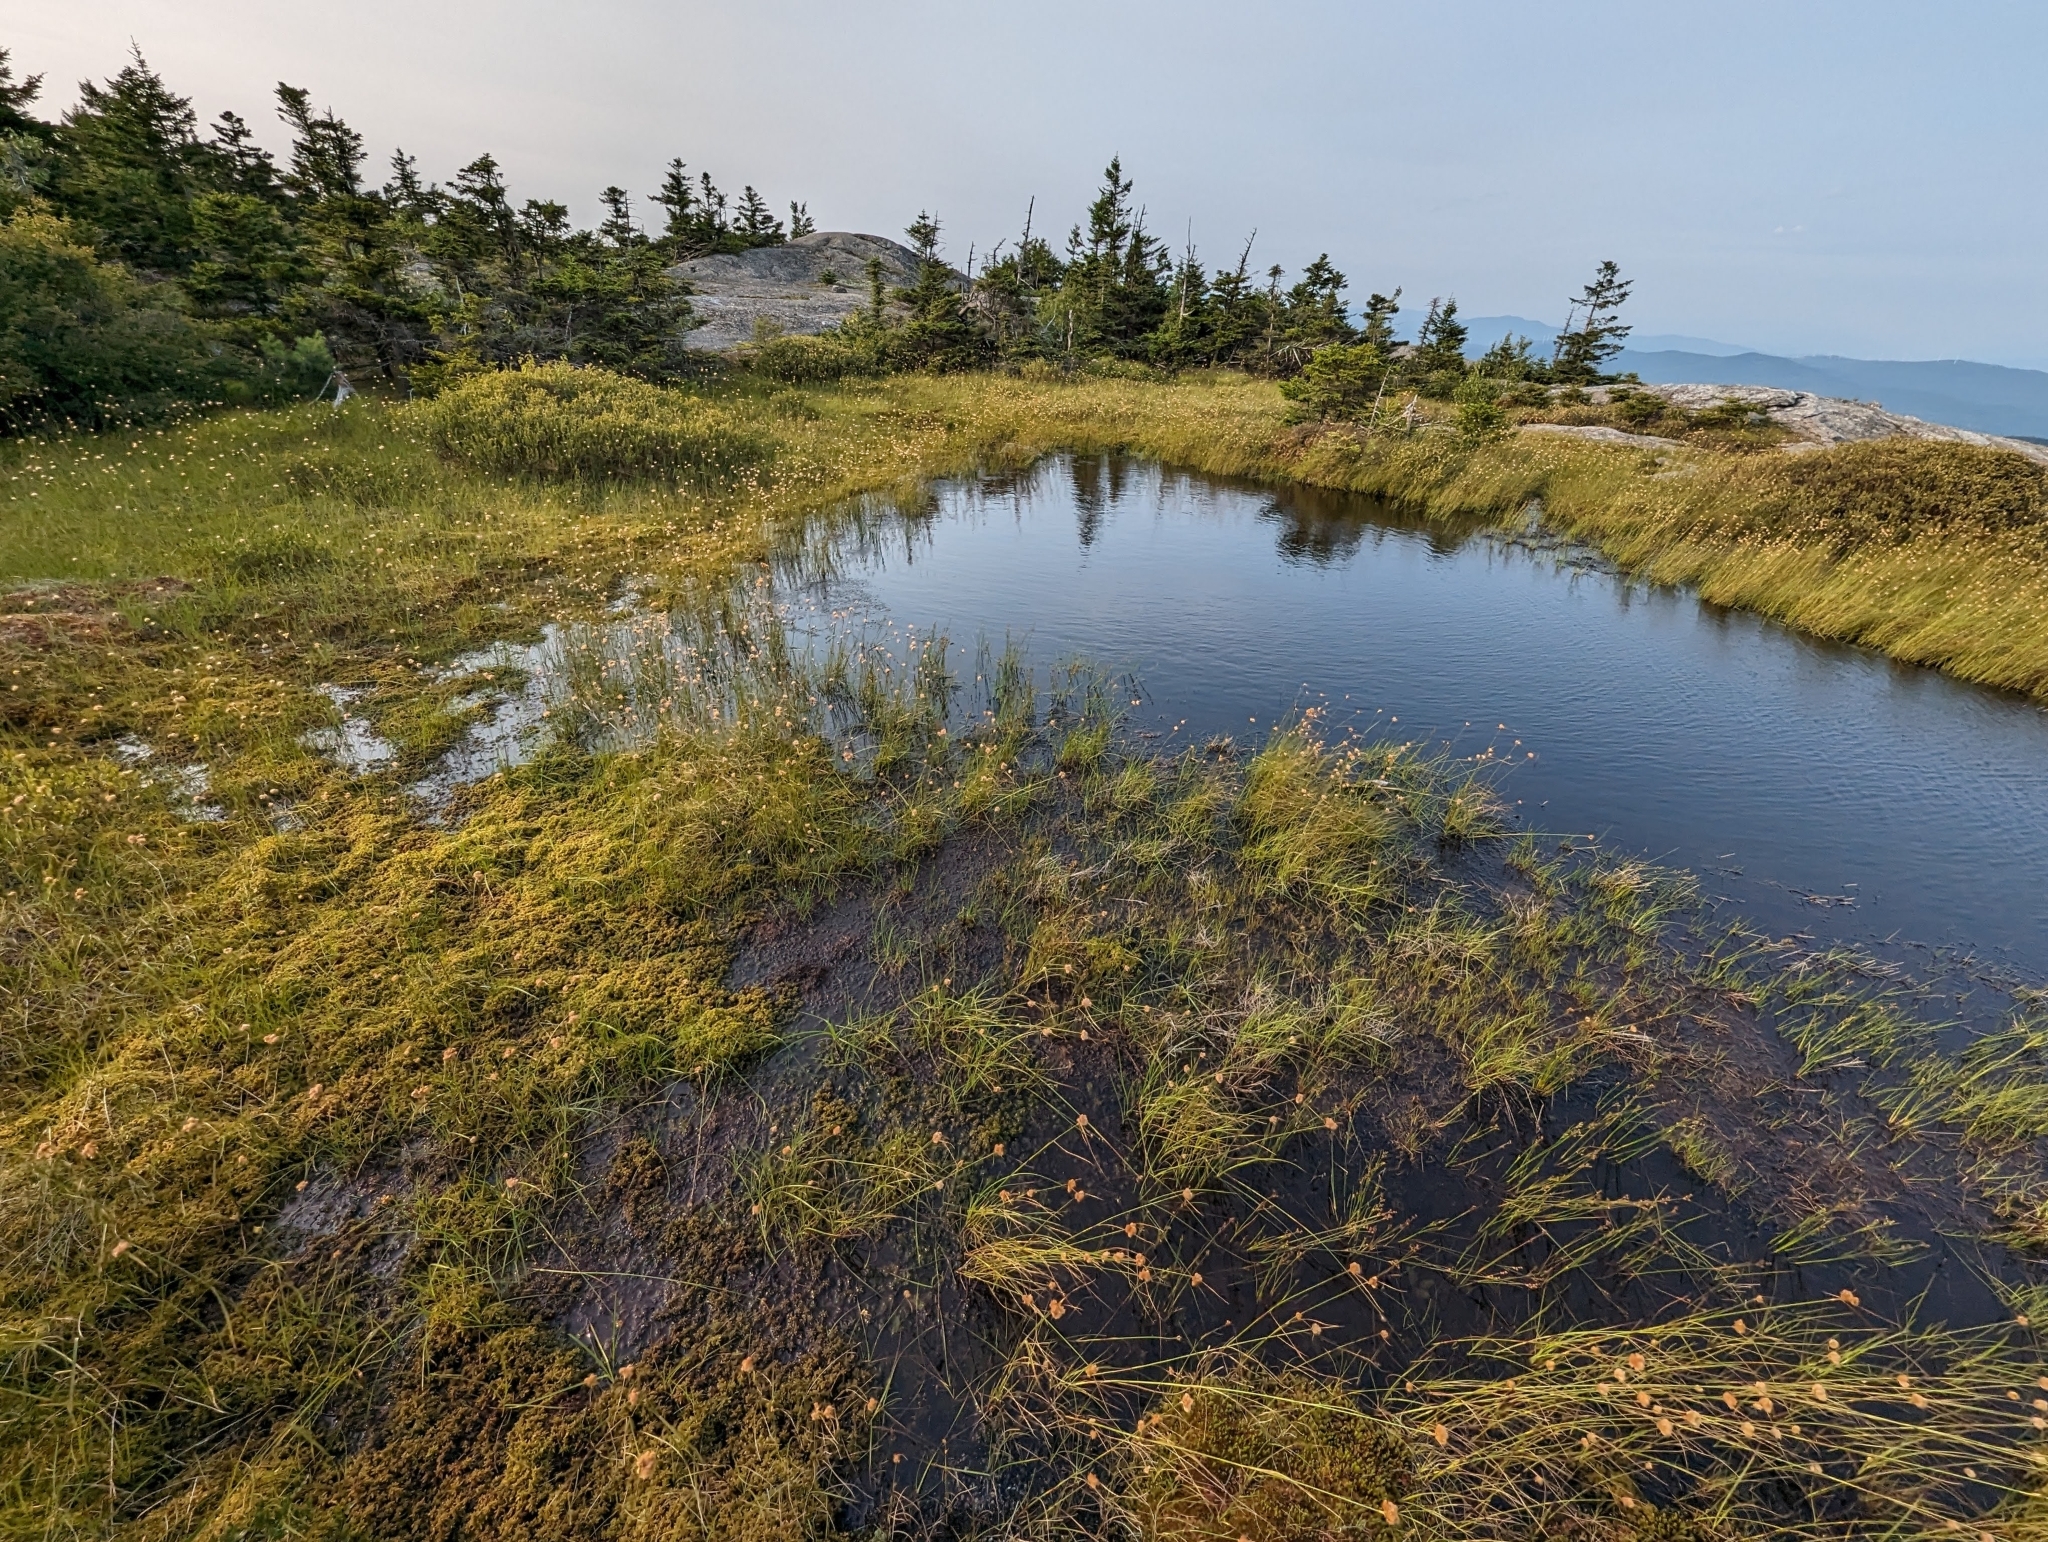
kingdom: Plantae
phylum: Tracheophyta
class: Liliopsida
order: Poales
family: Cyperaceae
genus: Eriophorum
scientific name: Eriophorum virginicum
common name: Tawny cottongrass
